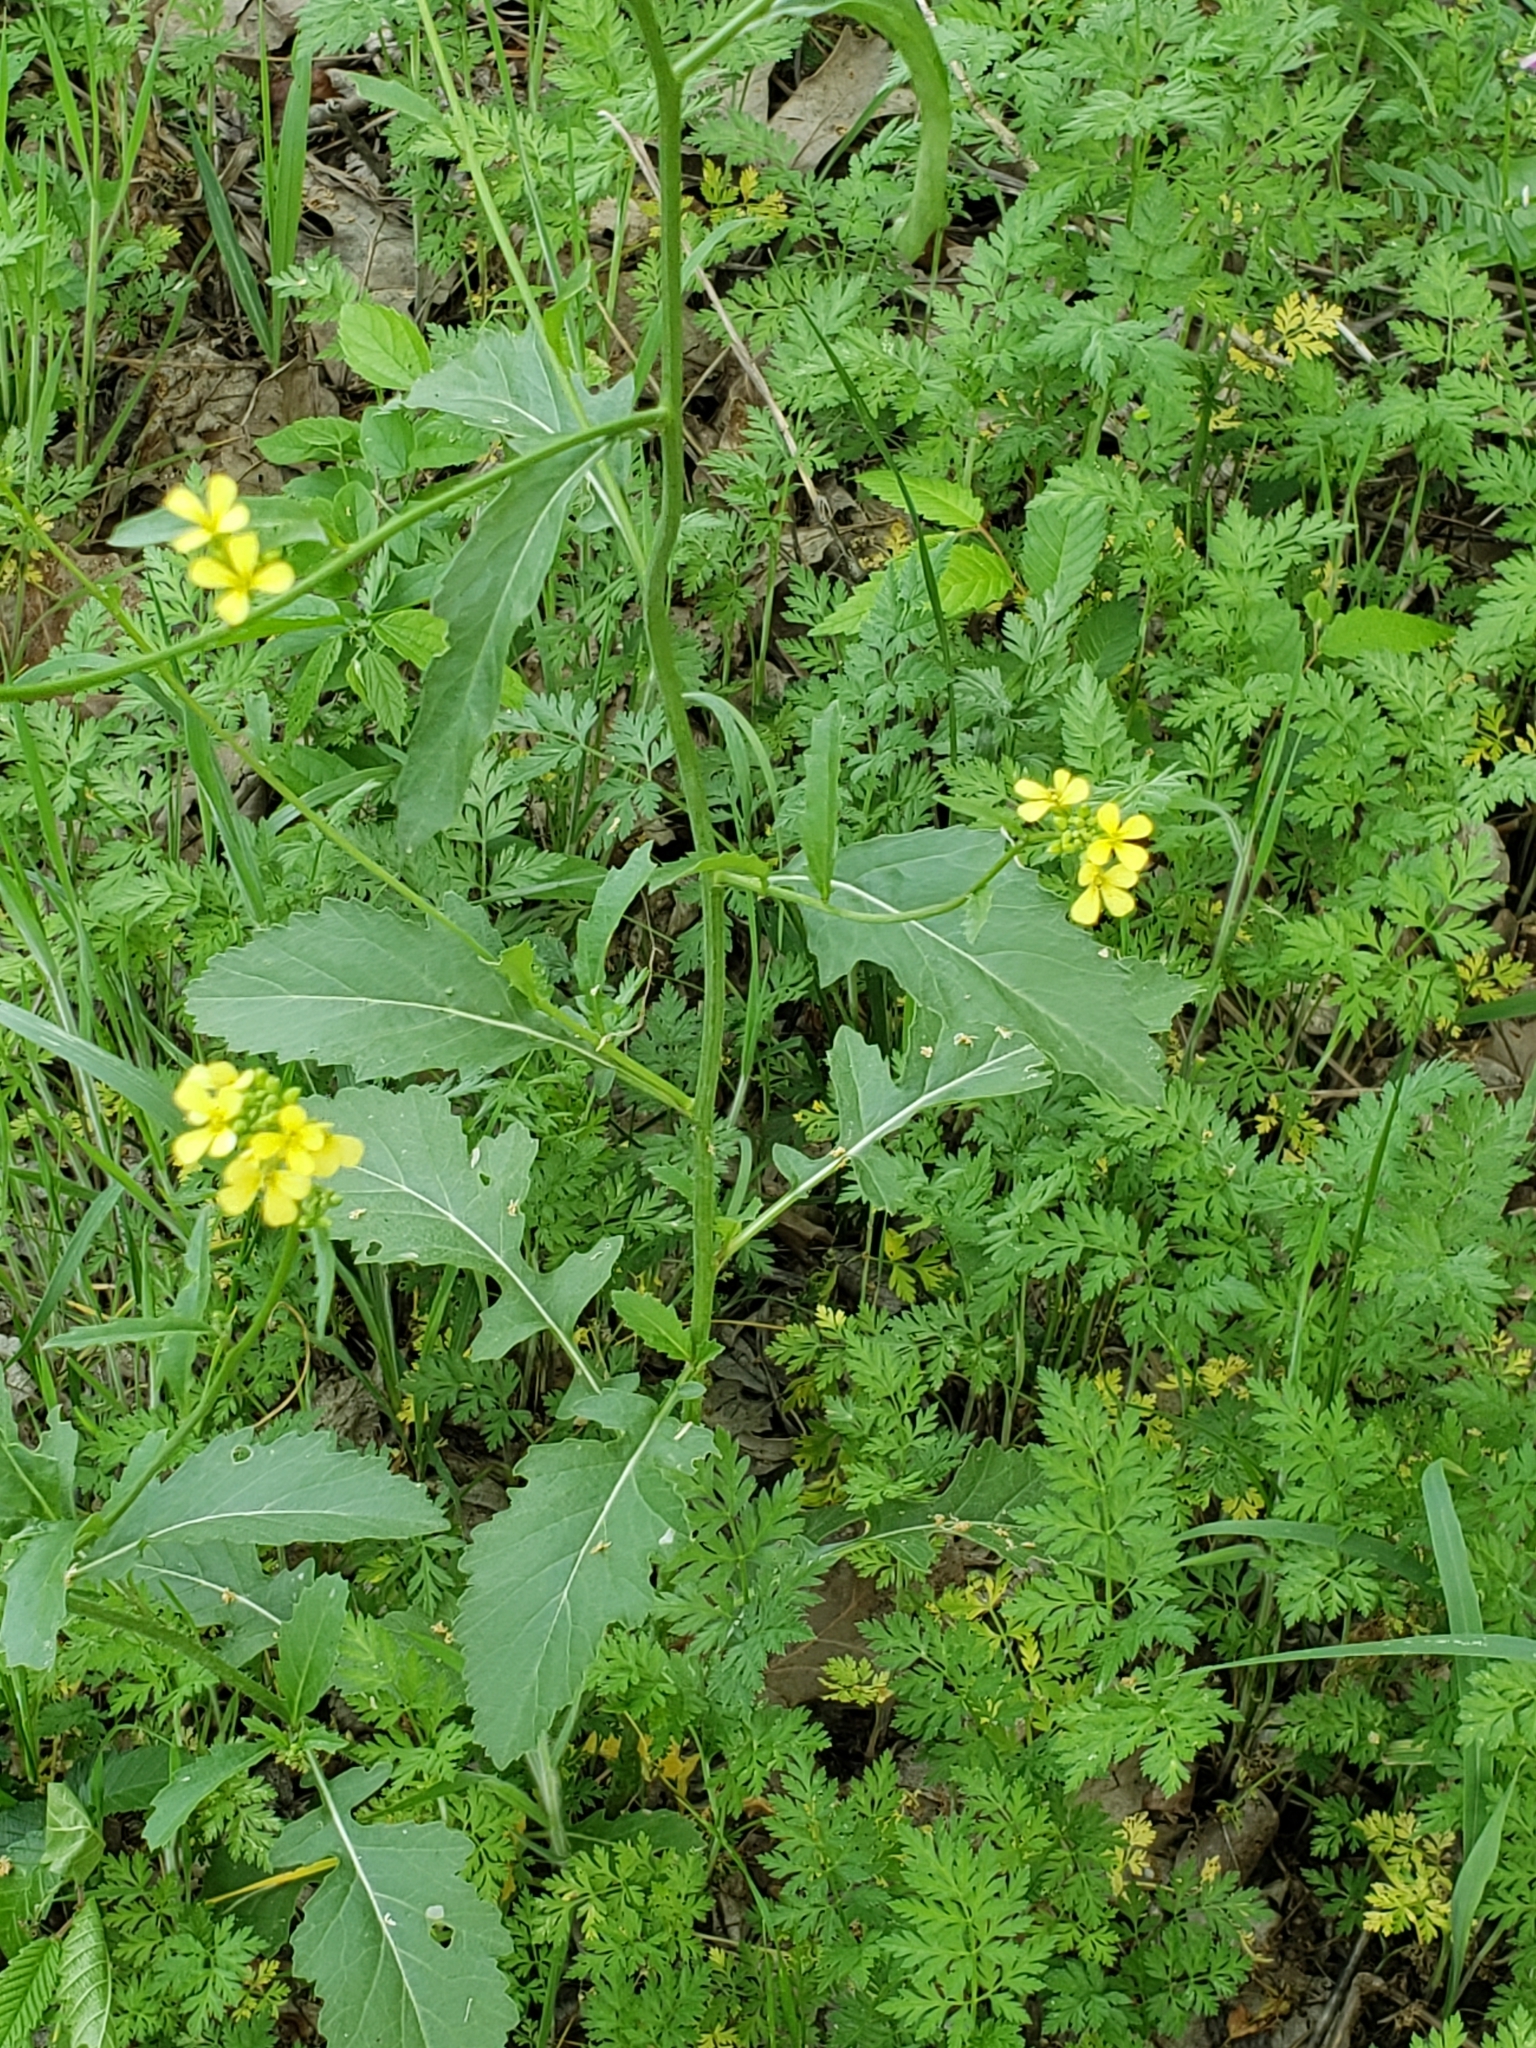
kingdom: Plantae
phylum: Tracheophyta
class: Magnoliopsida
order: Brassicales
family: Brassicaceae
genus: Rapistrum
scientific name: Rapistrum rugosum
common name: Annual bastardcabbage
